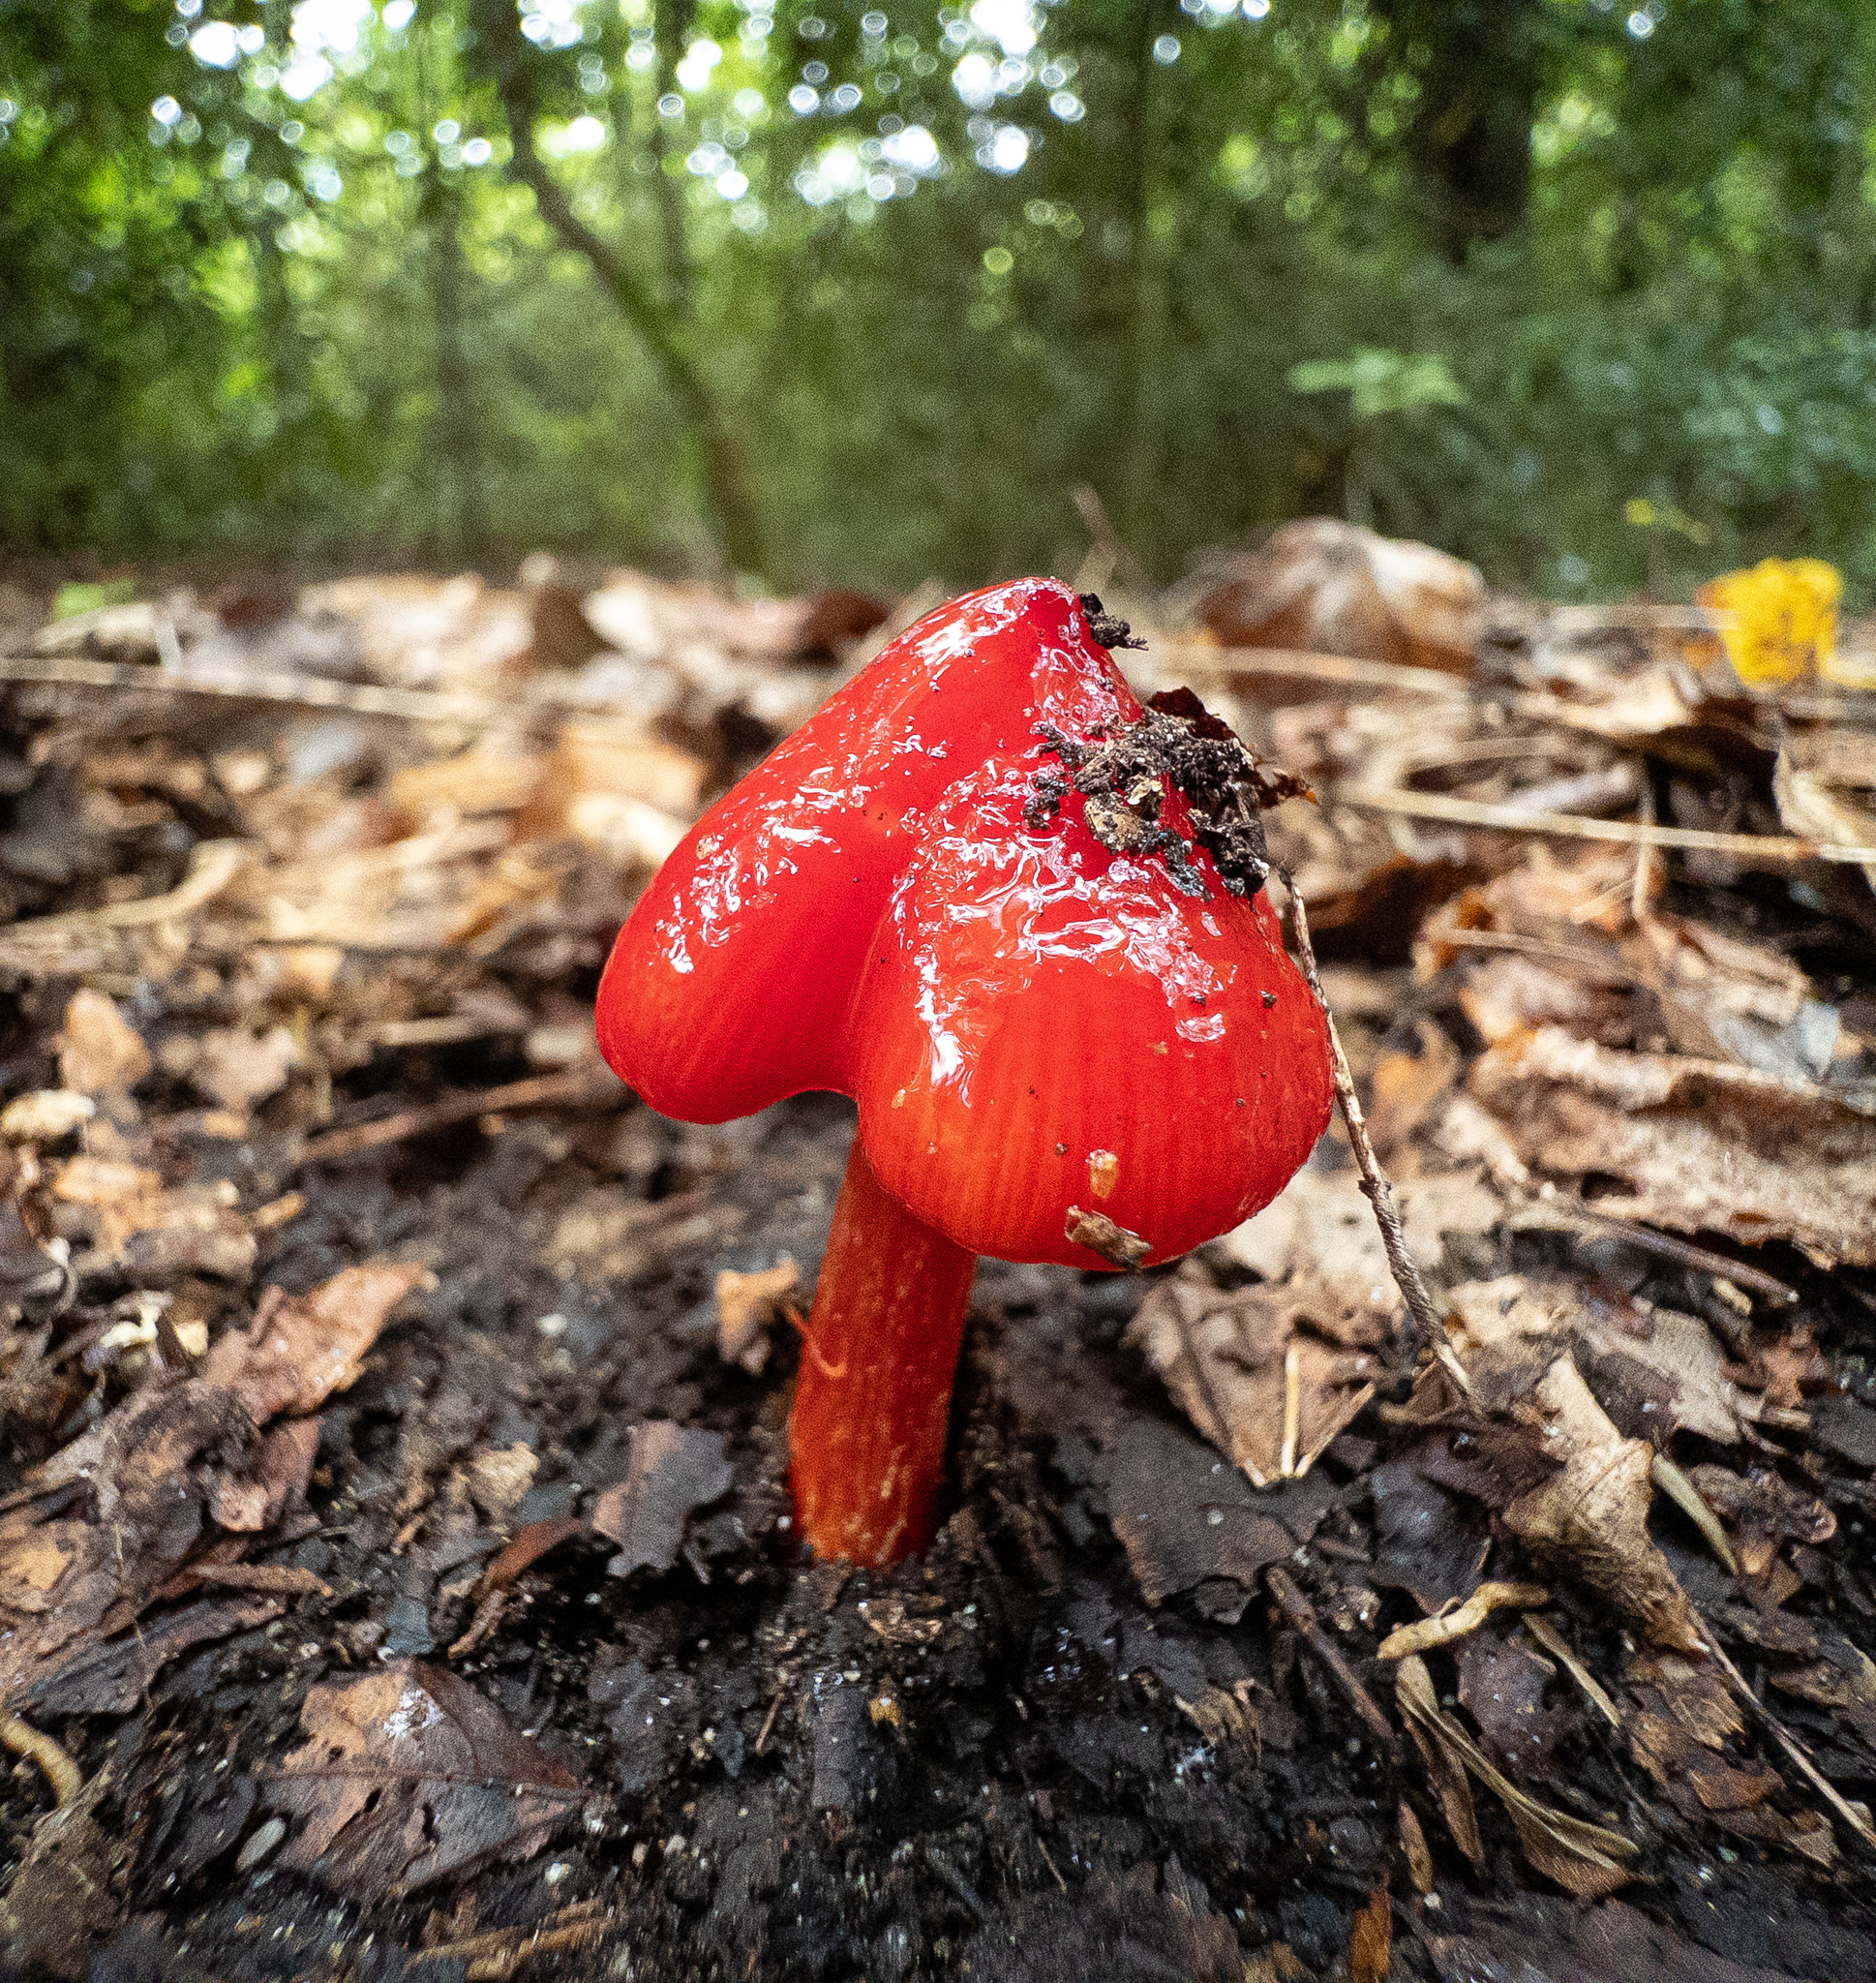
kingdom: Fungi
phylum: Basidiomycota
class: Agaricomycetes
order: Agaricales
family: Hygrophoraceae
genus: Hygrocybe
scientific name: Hygrocybe cuspidata
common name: Candy apple waxy cap
